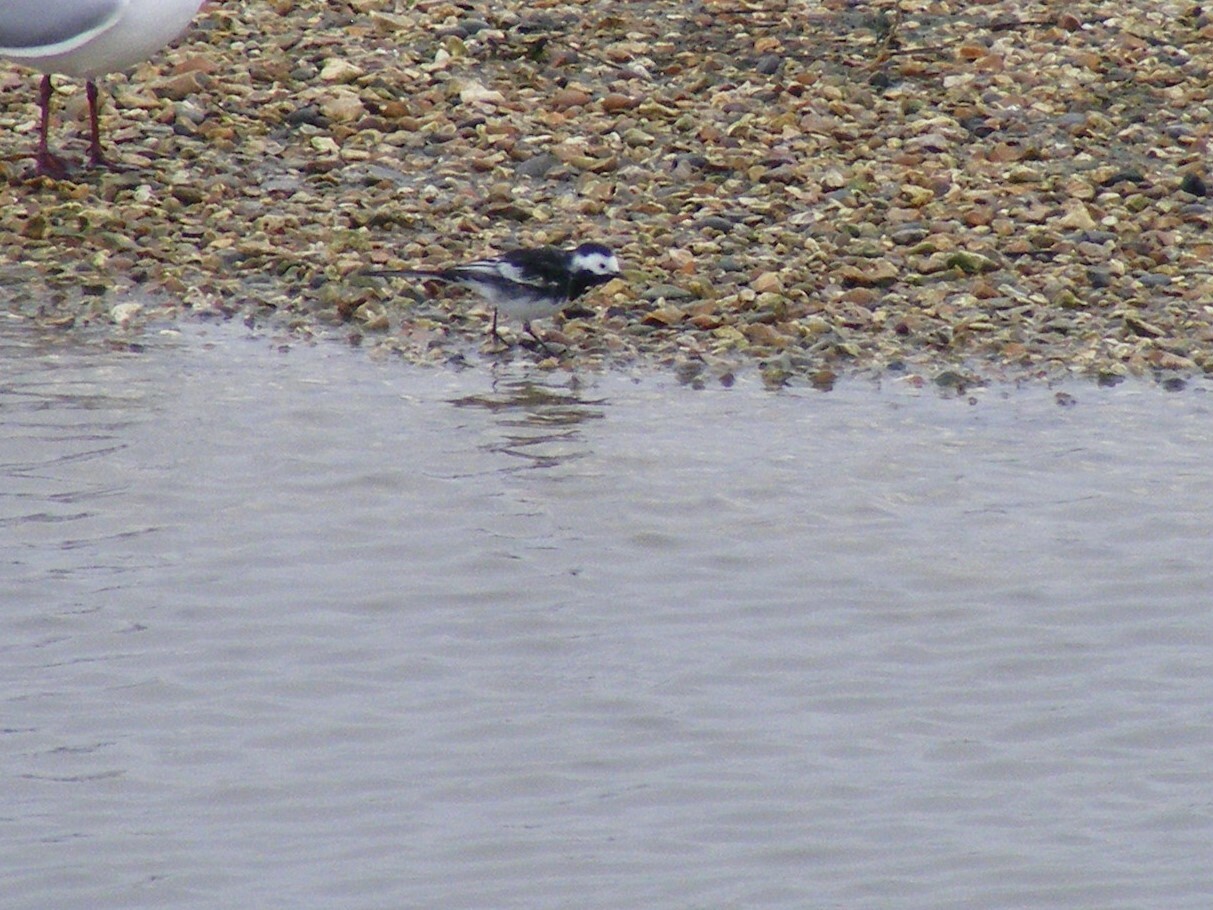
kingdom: Animalia
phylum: Chordata
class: Aves
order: Passeriformes
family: Motacillidae
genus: Motacilla
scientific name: Motacilla alba
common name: White wagtail
